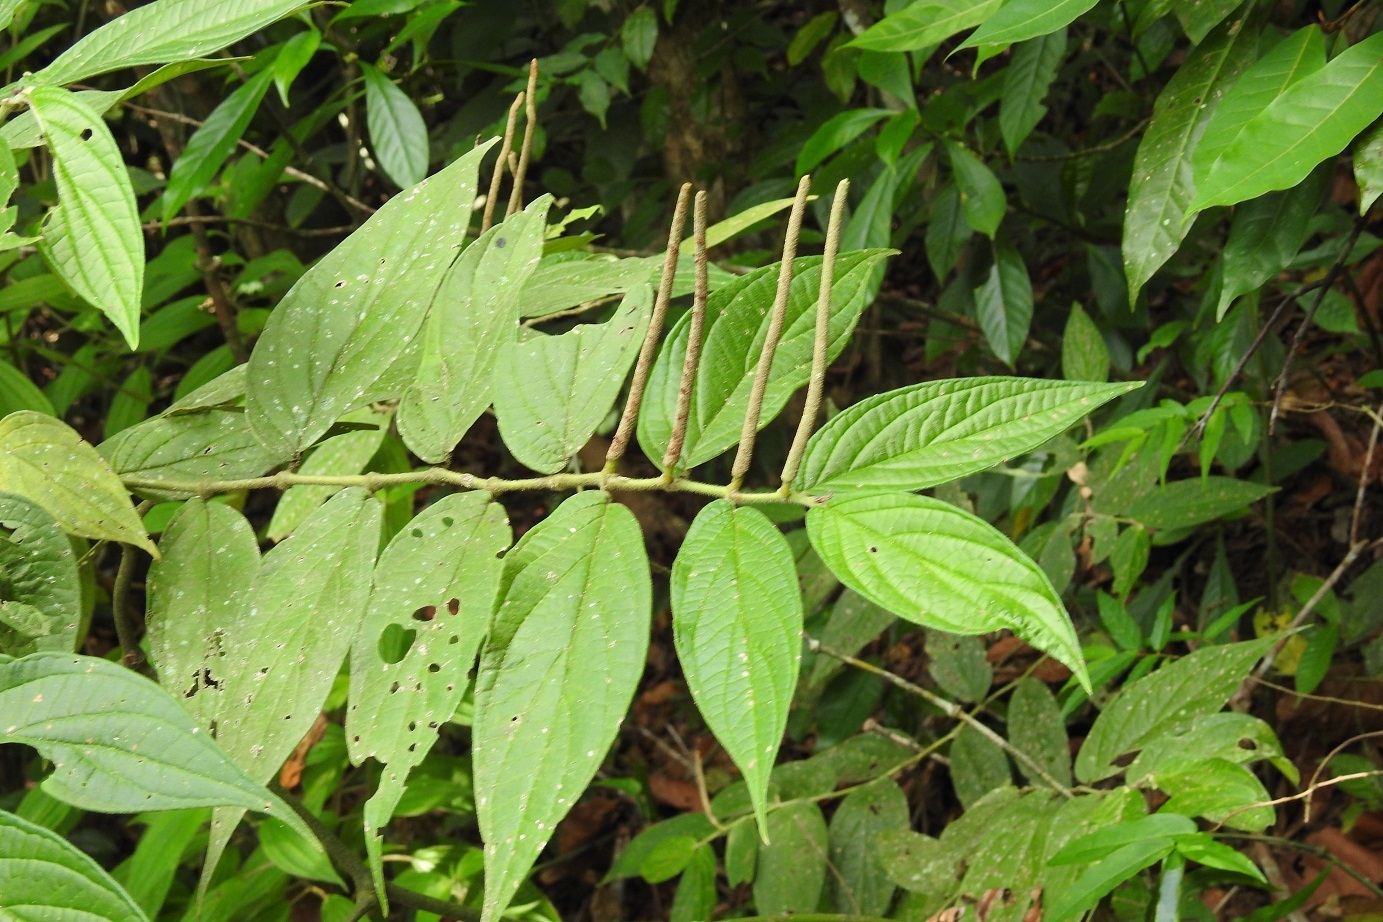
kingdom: Plantae
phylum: Tracheophyta
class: Magnoliopsida
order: Piperales
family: Piperaceae
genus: Piper
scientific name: Piper pseudofuligineum
